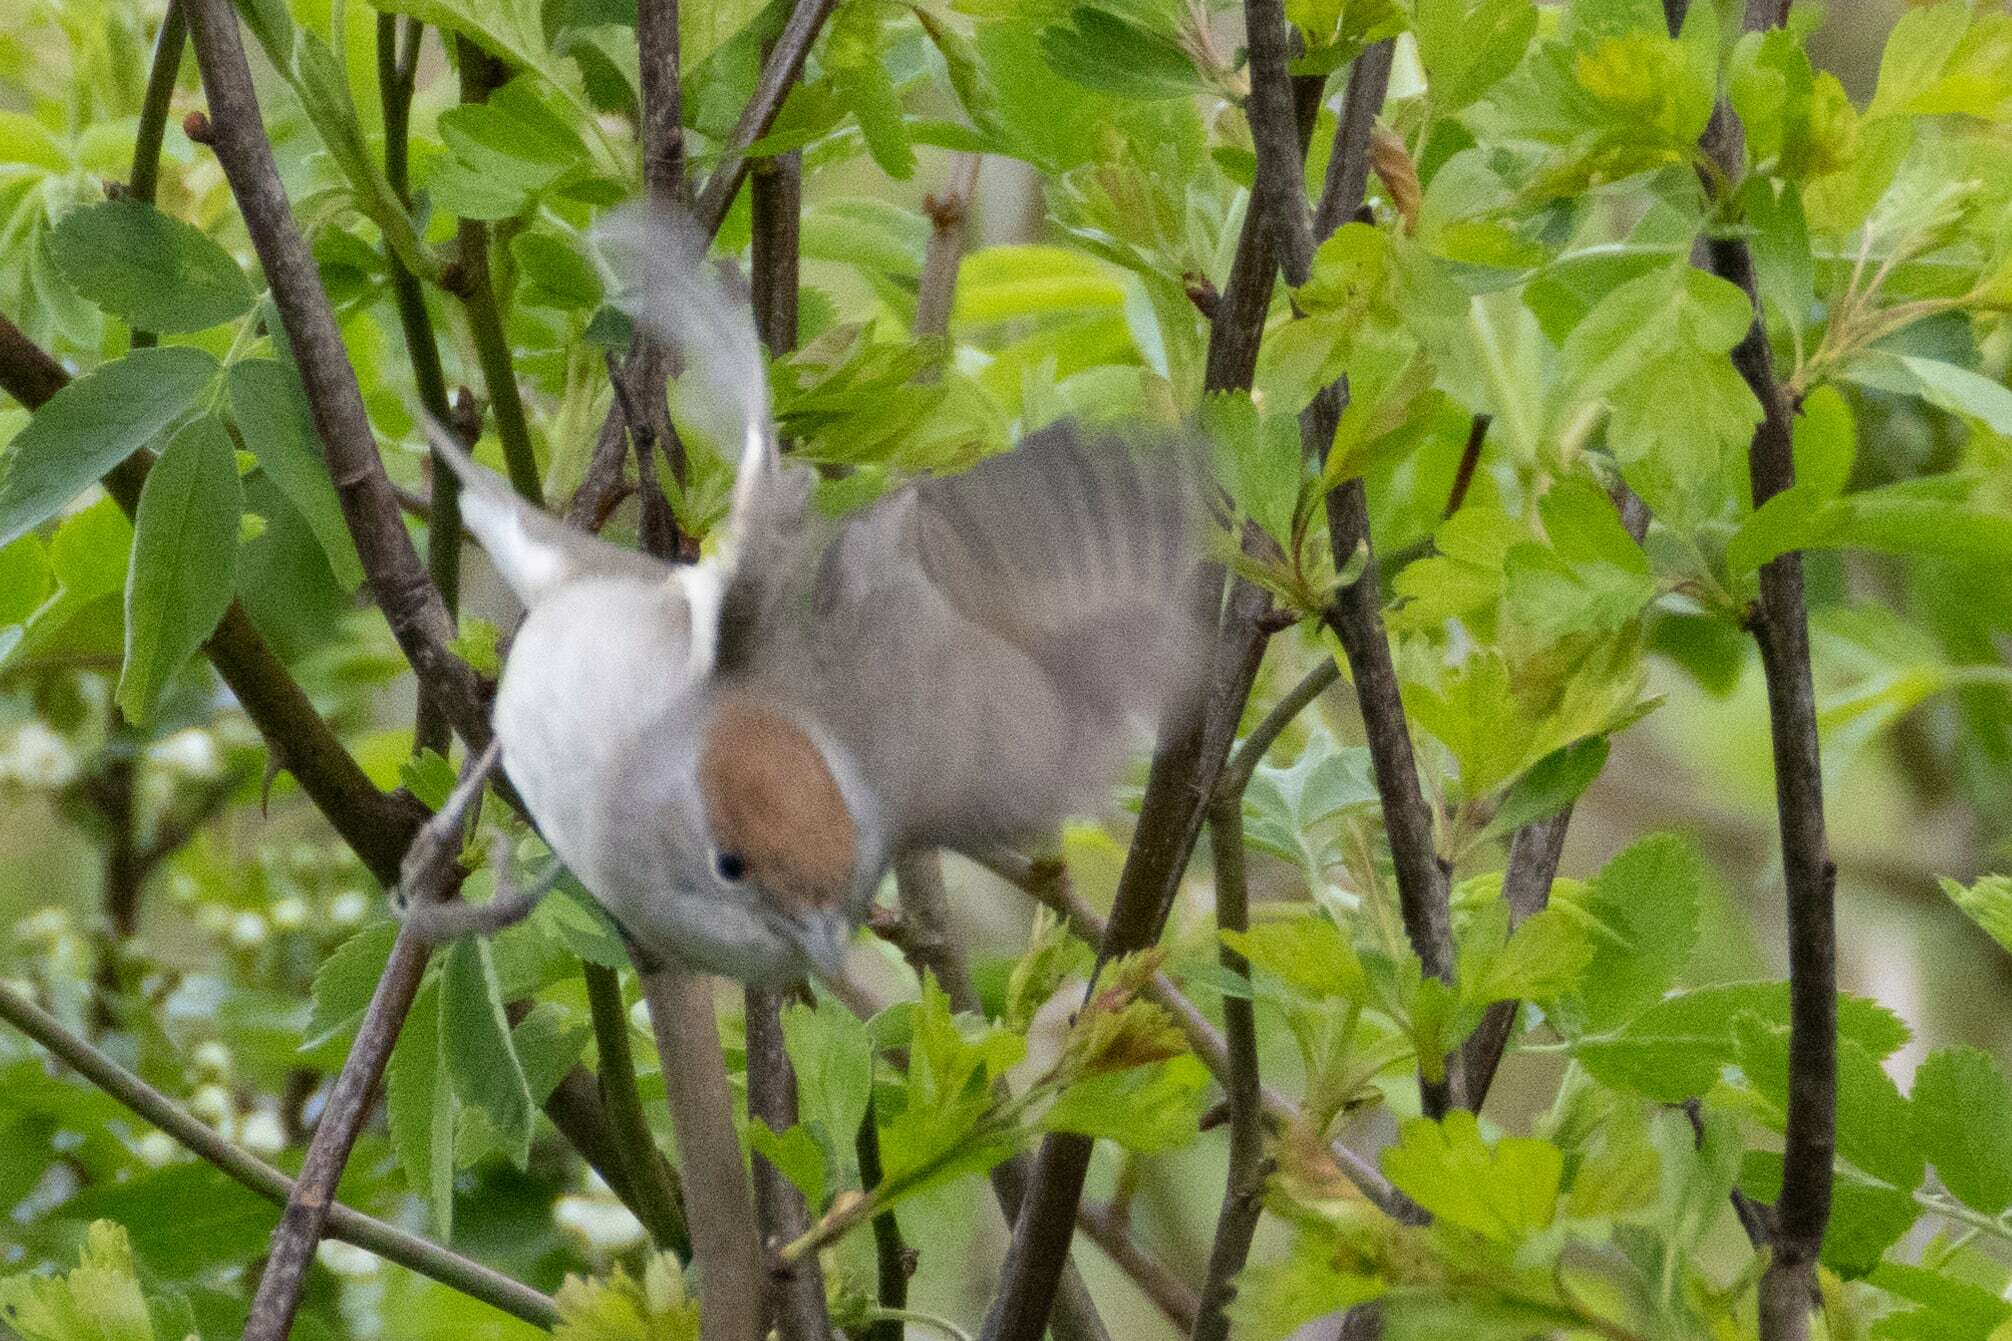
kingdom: Animalia
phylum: Chordata
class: Aves
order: Passeriformes
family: Sylviidae
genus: Sylvia
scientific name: Sylvia atricapilla
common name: Eurasian blackcap
